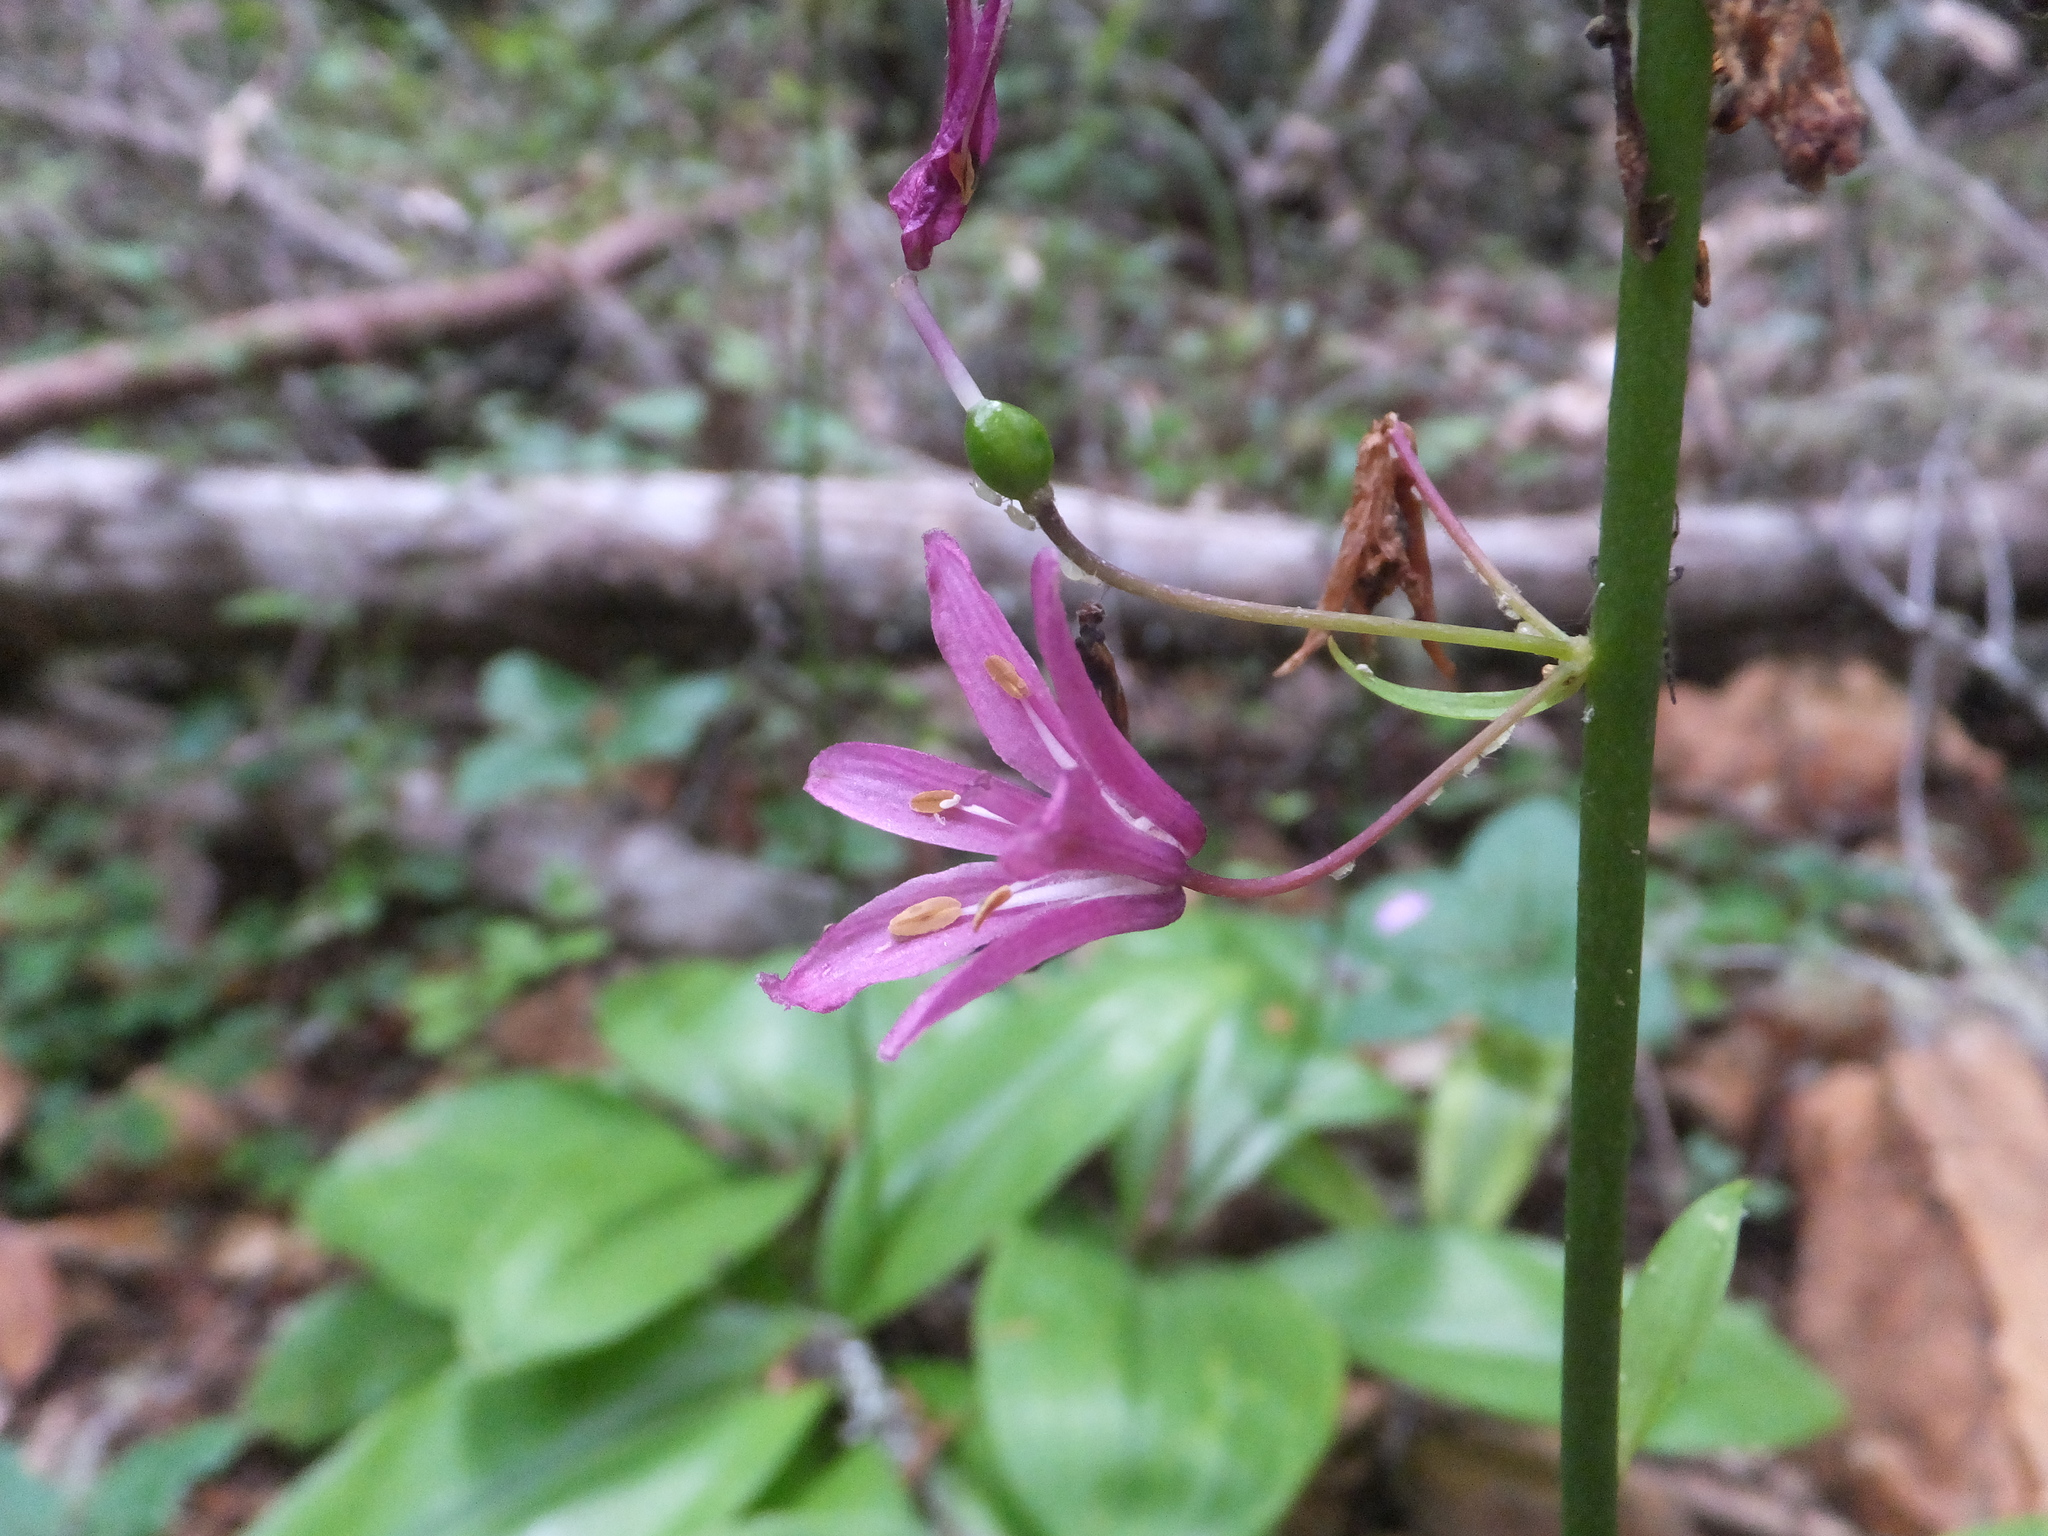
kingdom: Plantae
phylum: Tracheophyta
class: Liliopsida
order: Liliales
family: Liliaceae
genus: Clintonia
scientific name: Clintonia andrewsiana
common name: Red clintonia
